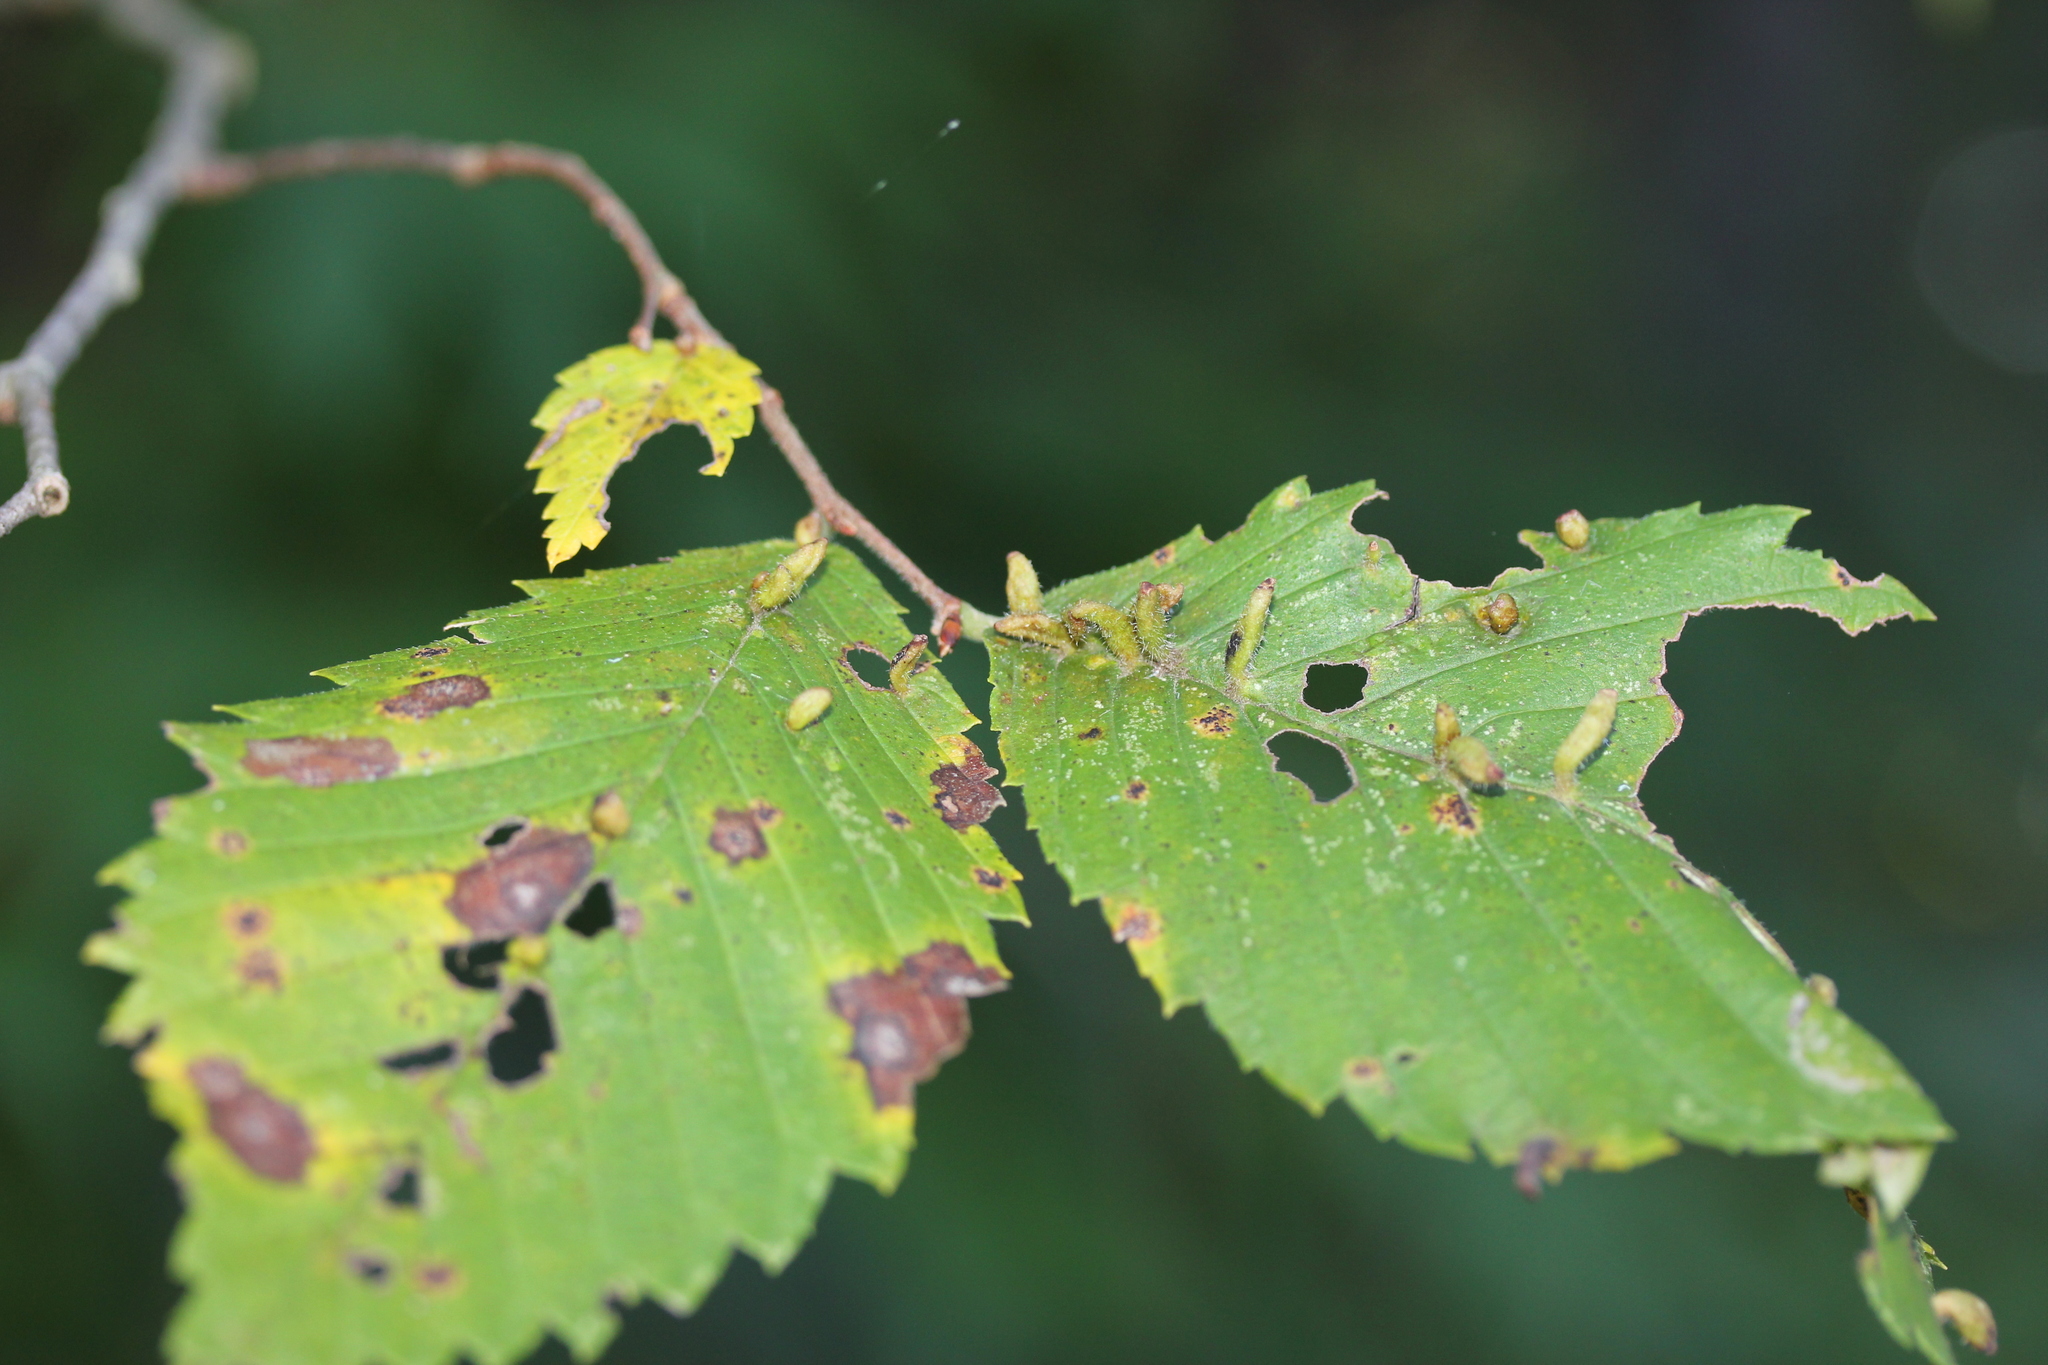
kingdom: Animalia
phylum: Arthropoda
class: Arachnida
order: Trombidiformes
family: Eriophyidae
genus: Aceria
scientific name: Aceria
